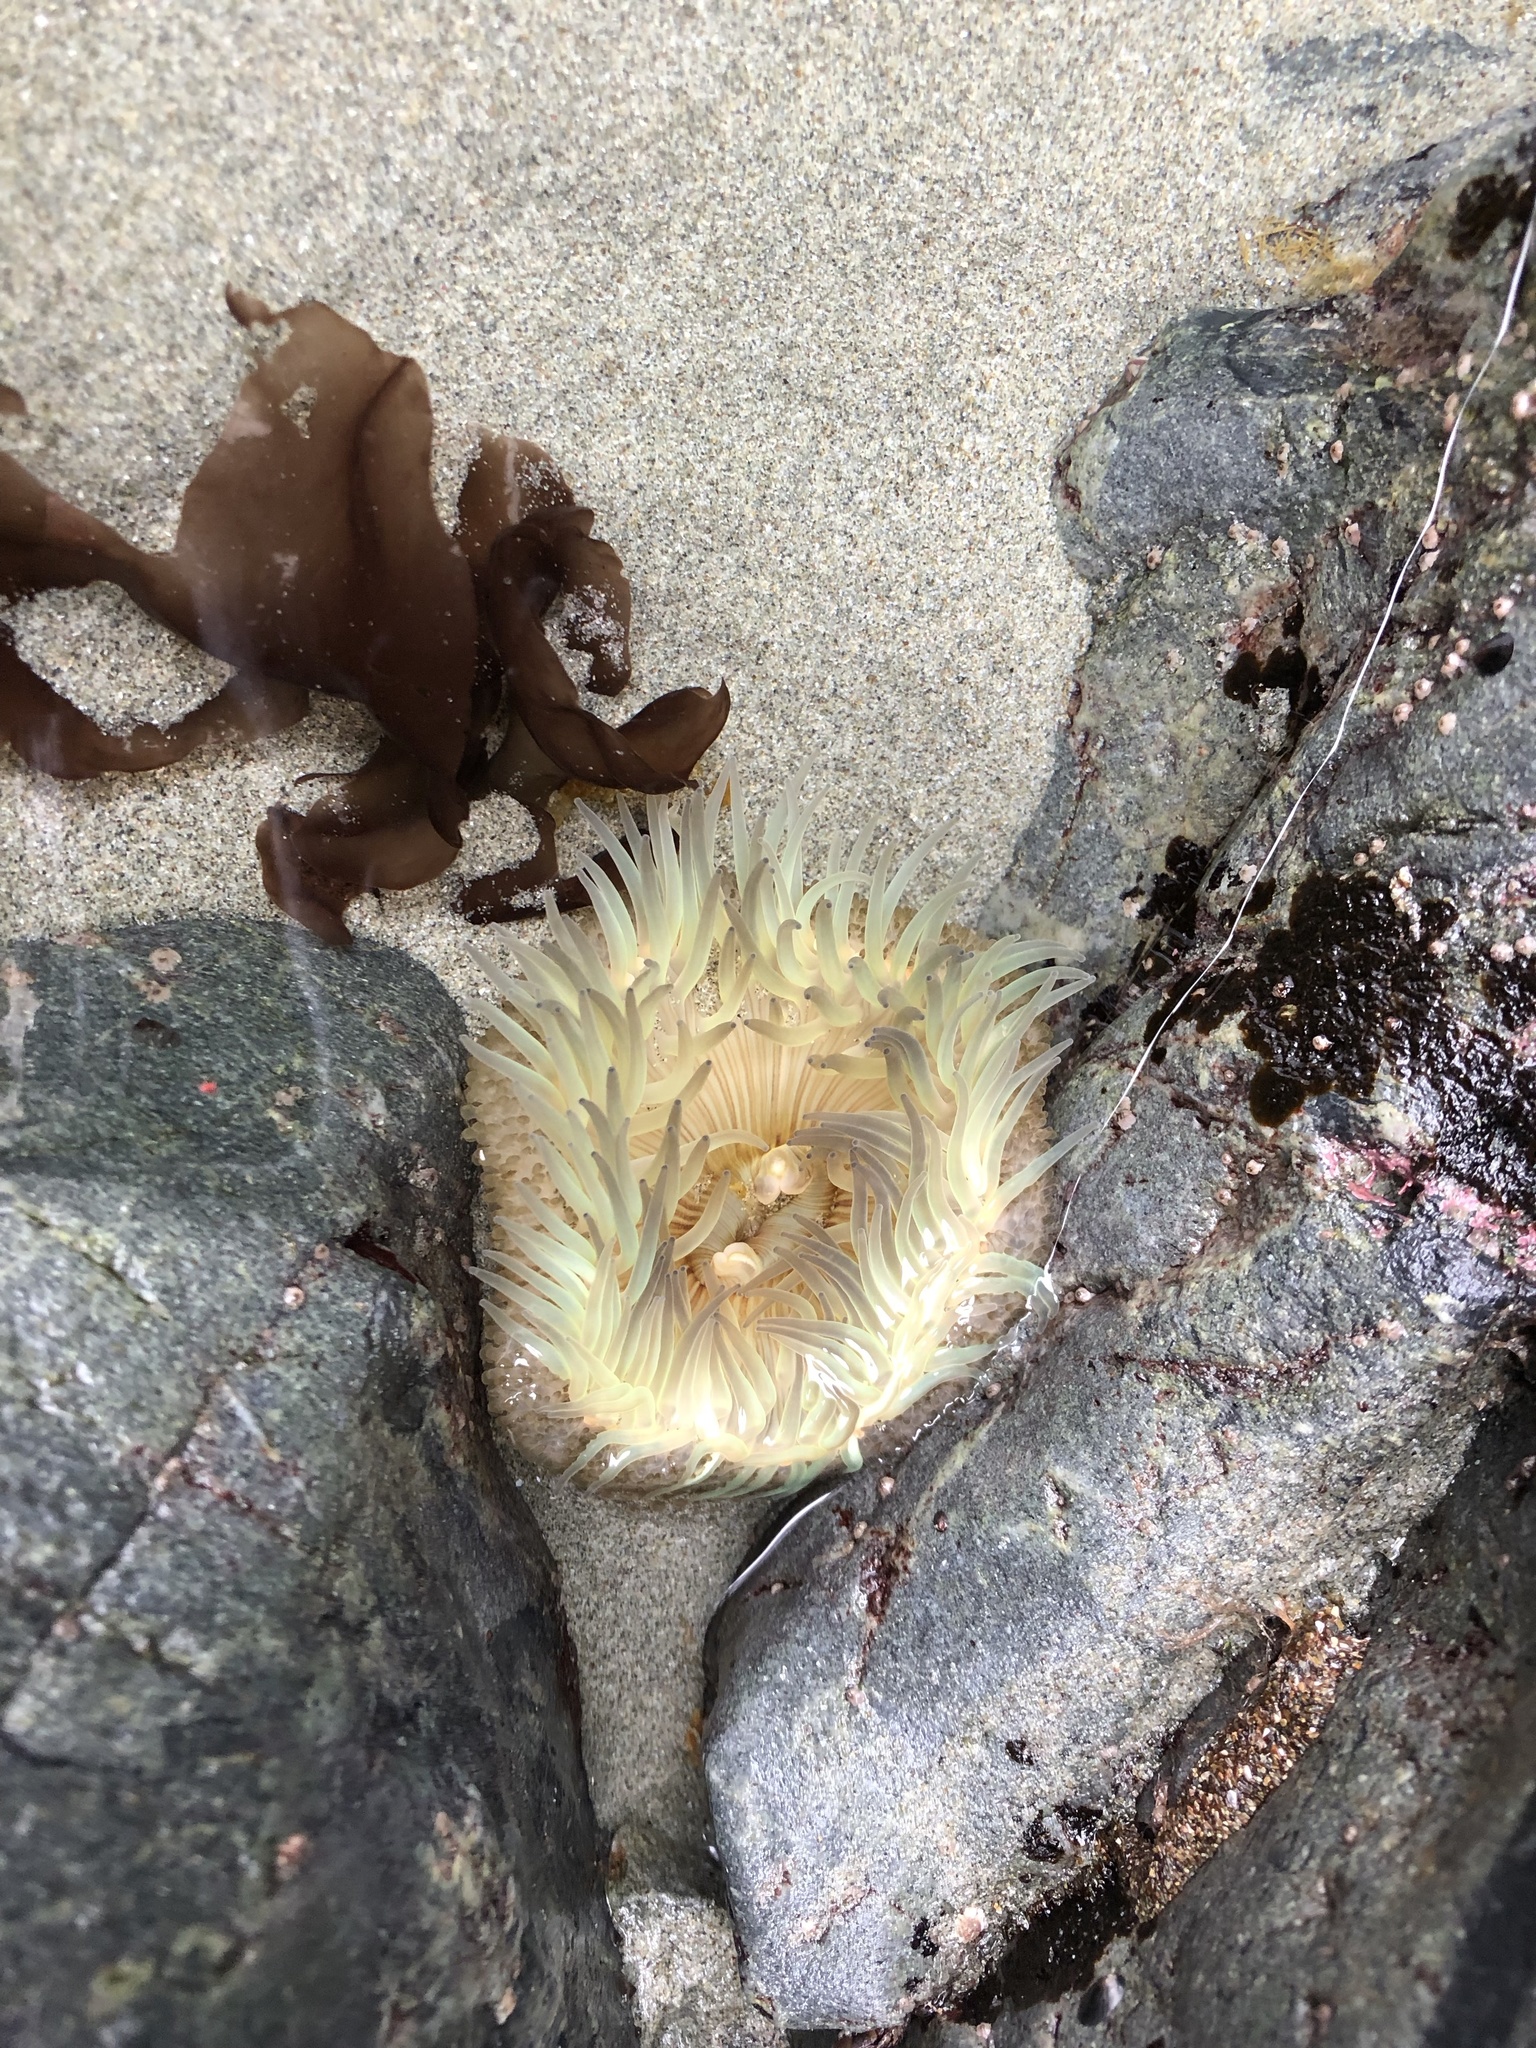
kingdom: Animalia
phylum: Cnidaria
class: Anthozoa
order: Actiniaria
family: Actiniidae
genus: Anthopleura
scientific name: Anthopleura sola
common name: Sun anemone
